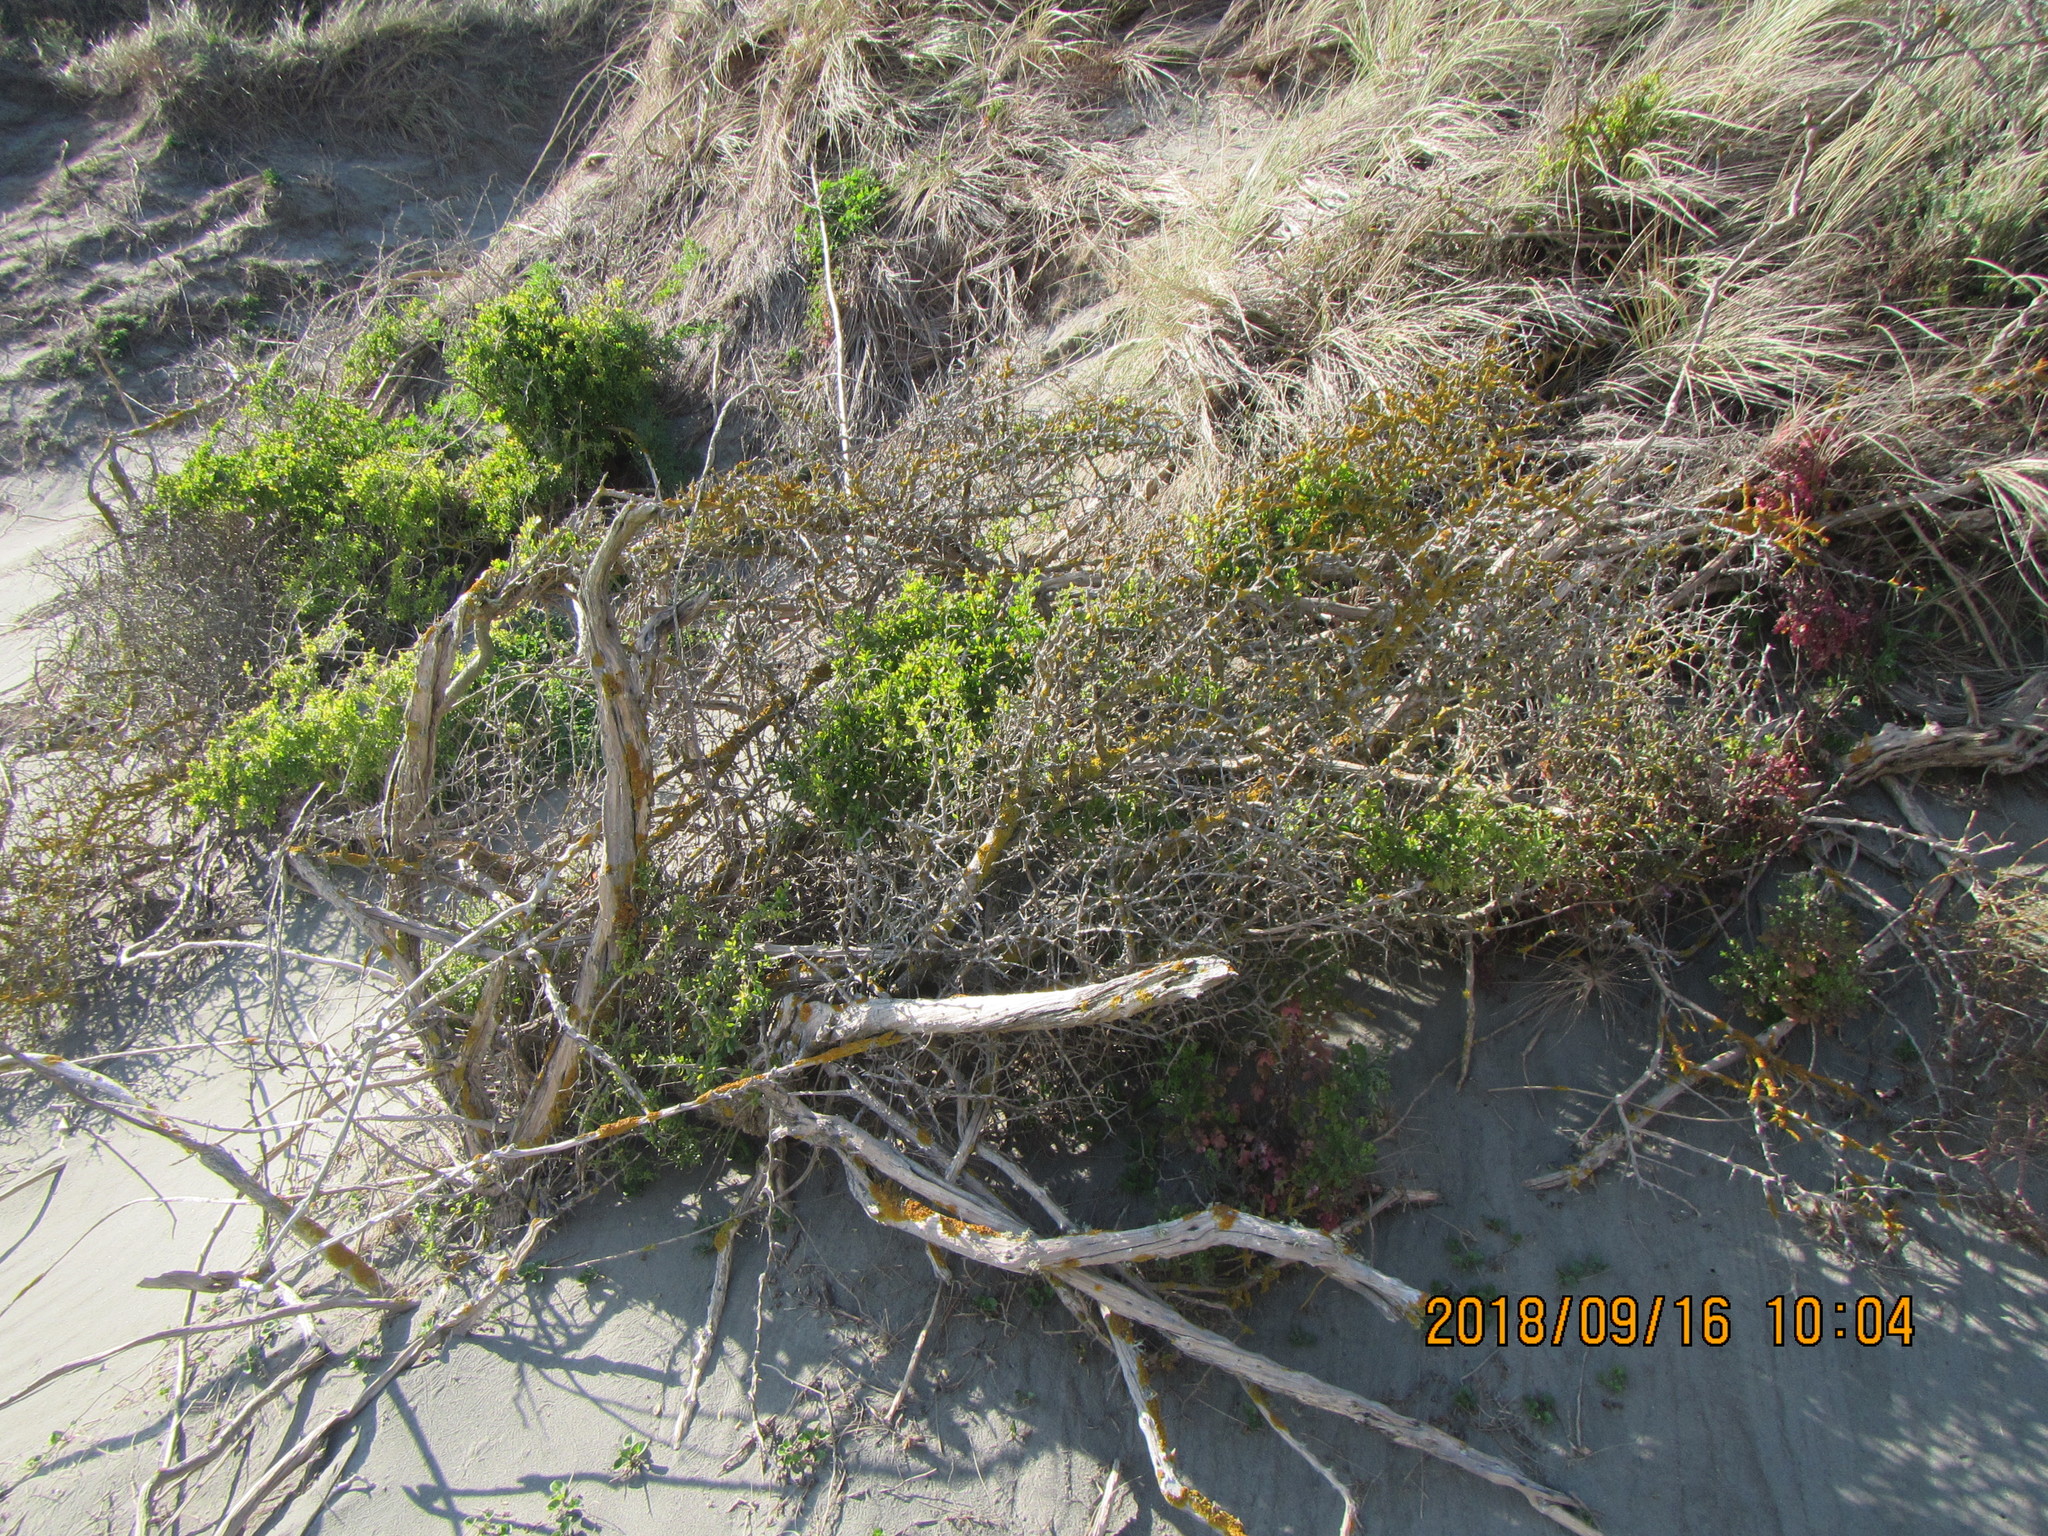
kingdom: Plantae
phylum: Tracheophyta
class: Magnoliopsida
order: Solanales
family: Solanaceae
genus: Lycium
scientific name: Lycium ferocissimum
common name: African boxthorn
